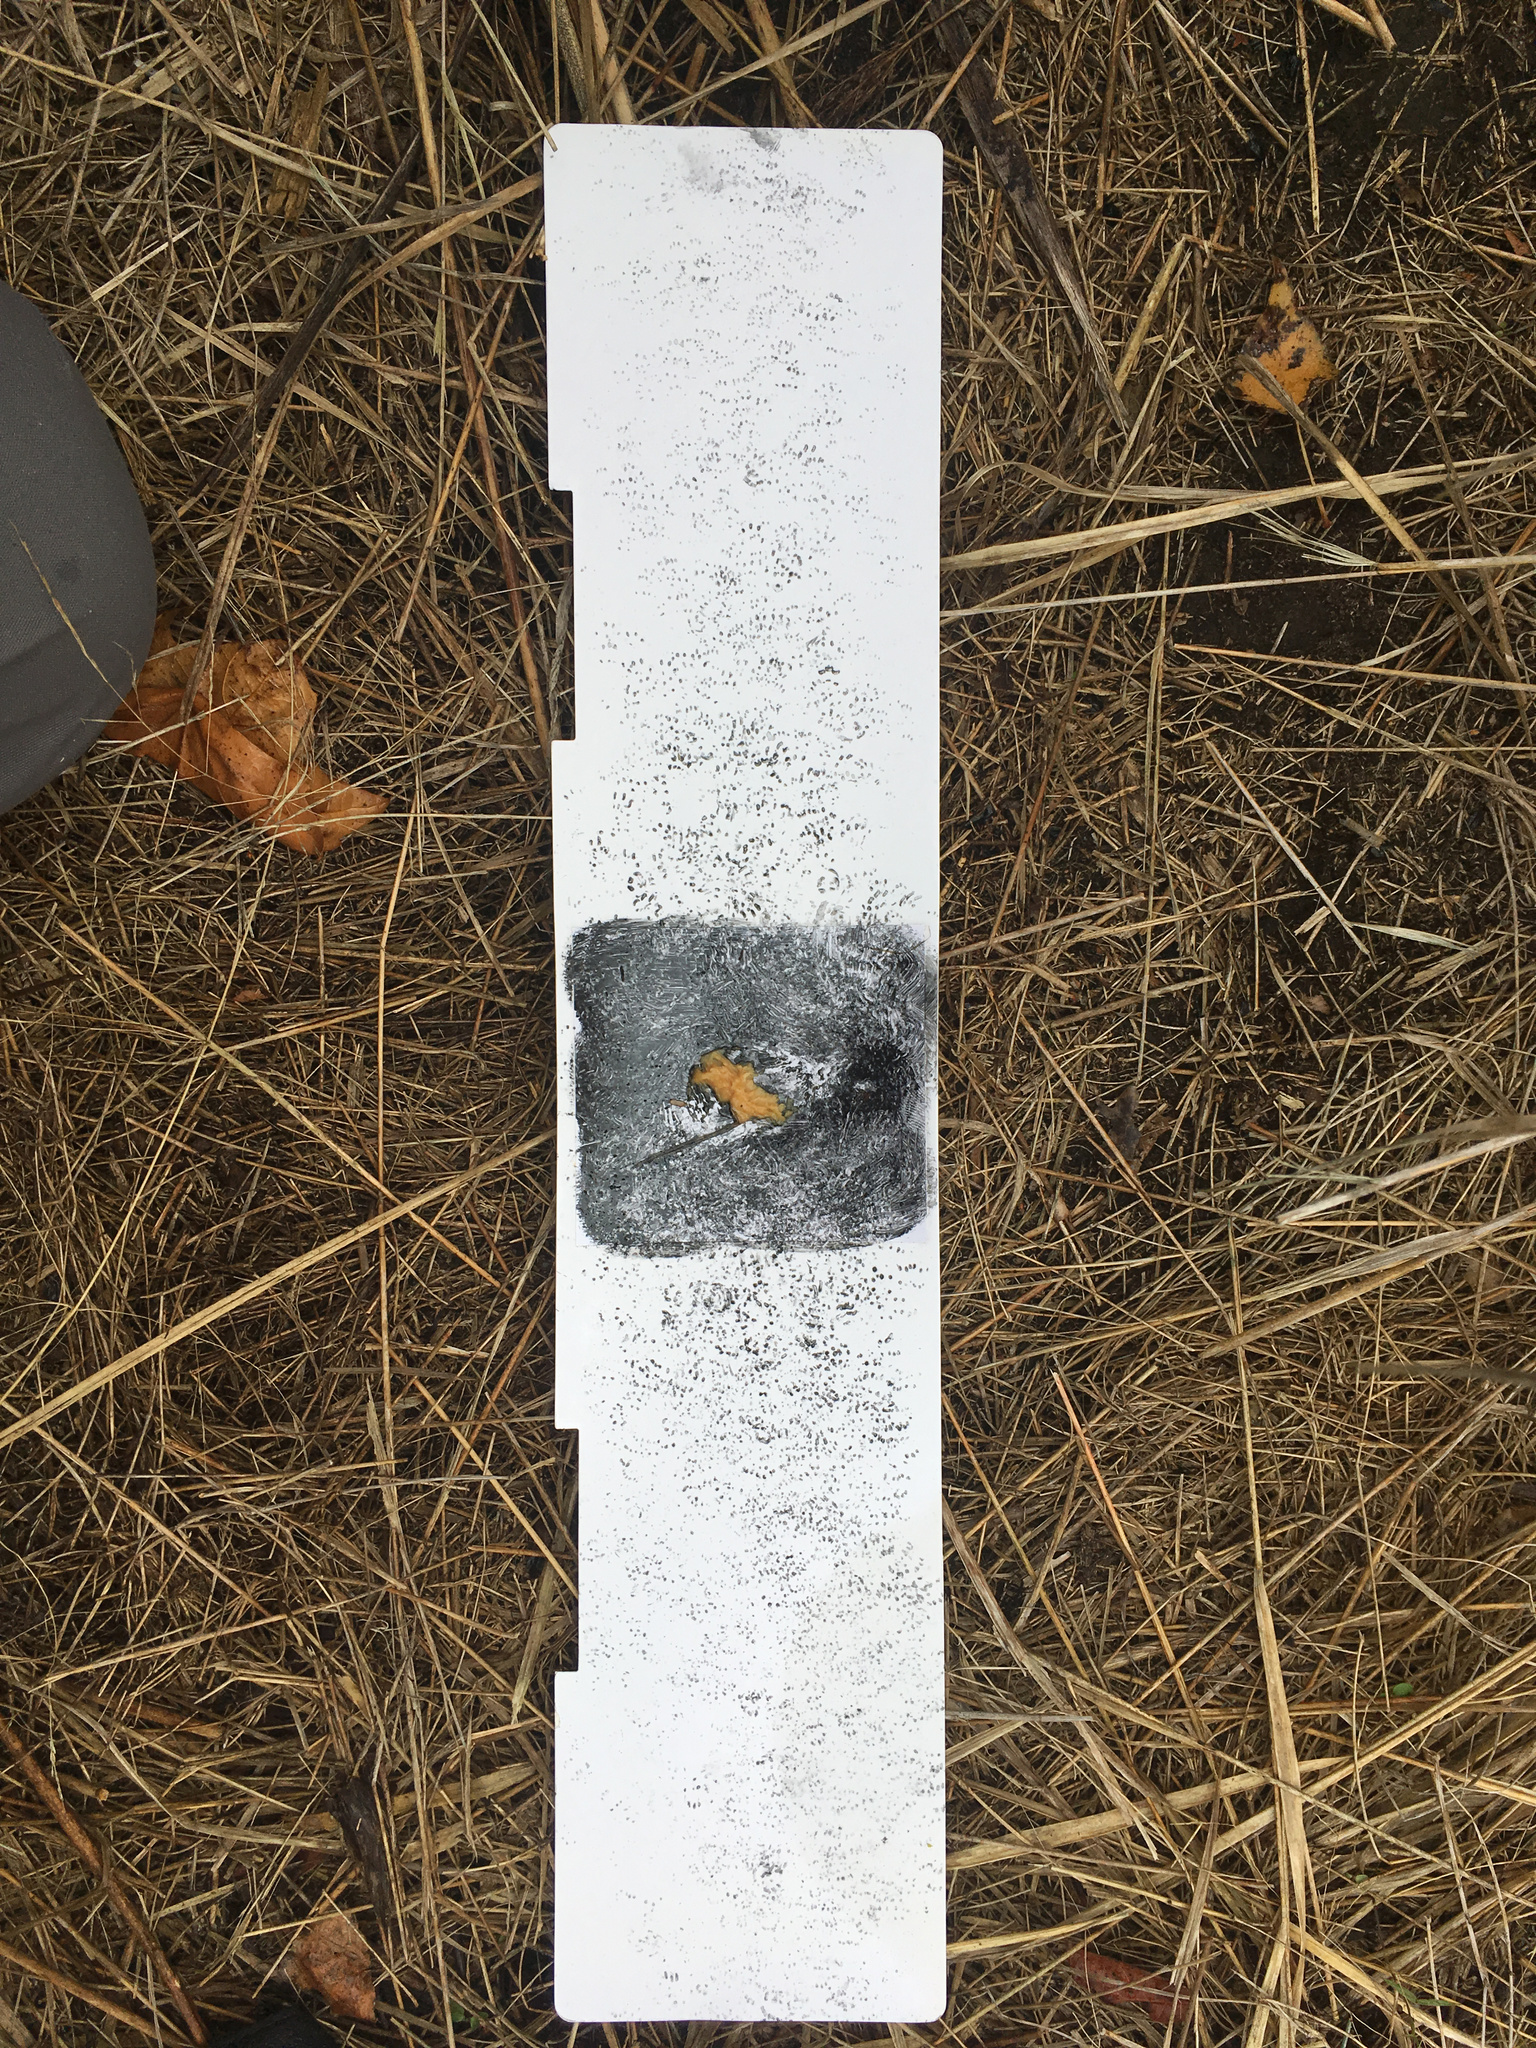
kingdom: Animalia
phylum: Chordata
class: Mammalia
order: Rodentia
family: Muridae
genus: Mus
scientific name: Mus musculus
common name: House mouse
